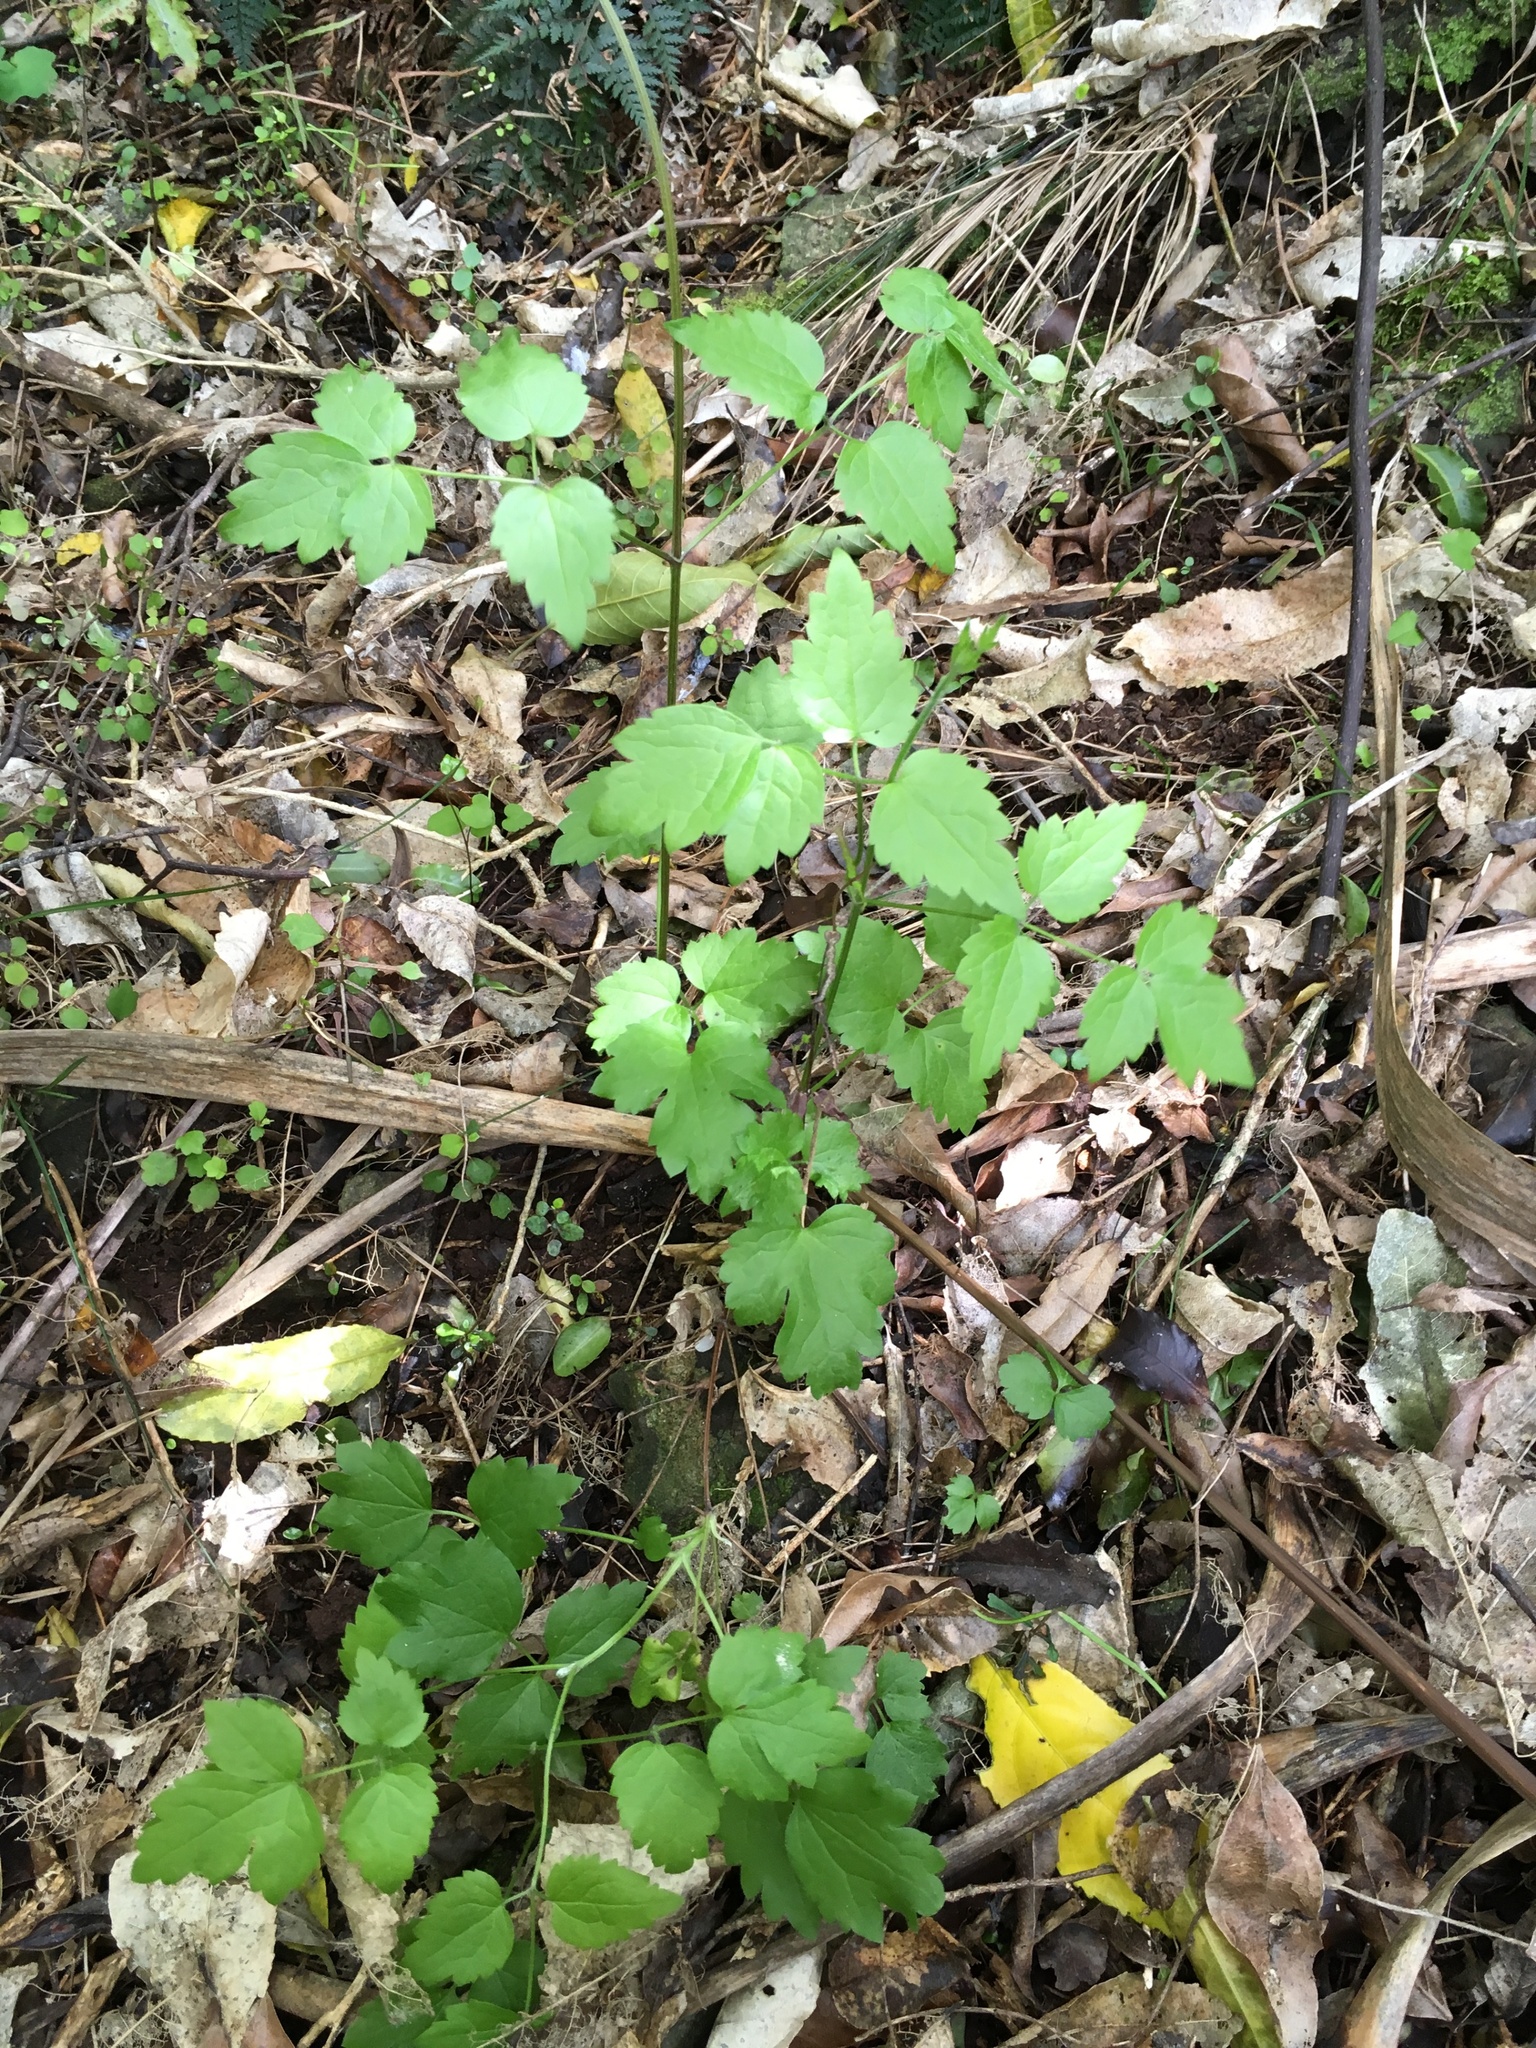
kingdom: Plantae
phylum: Tracheophyta
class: Magnoliopsida
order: Ranunculales
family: Ranunculaceae
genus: Clematis
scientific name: Clematis vitalba
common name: Evergreen clematis
